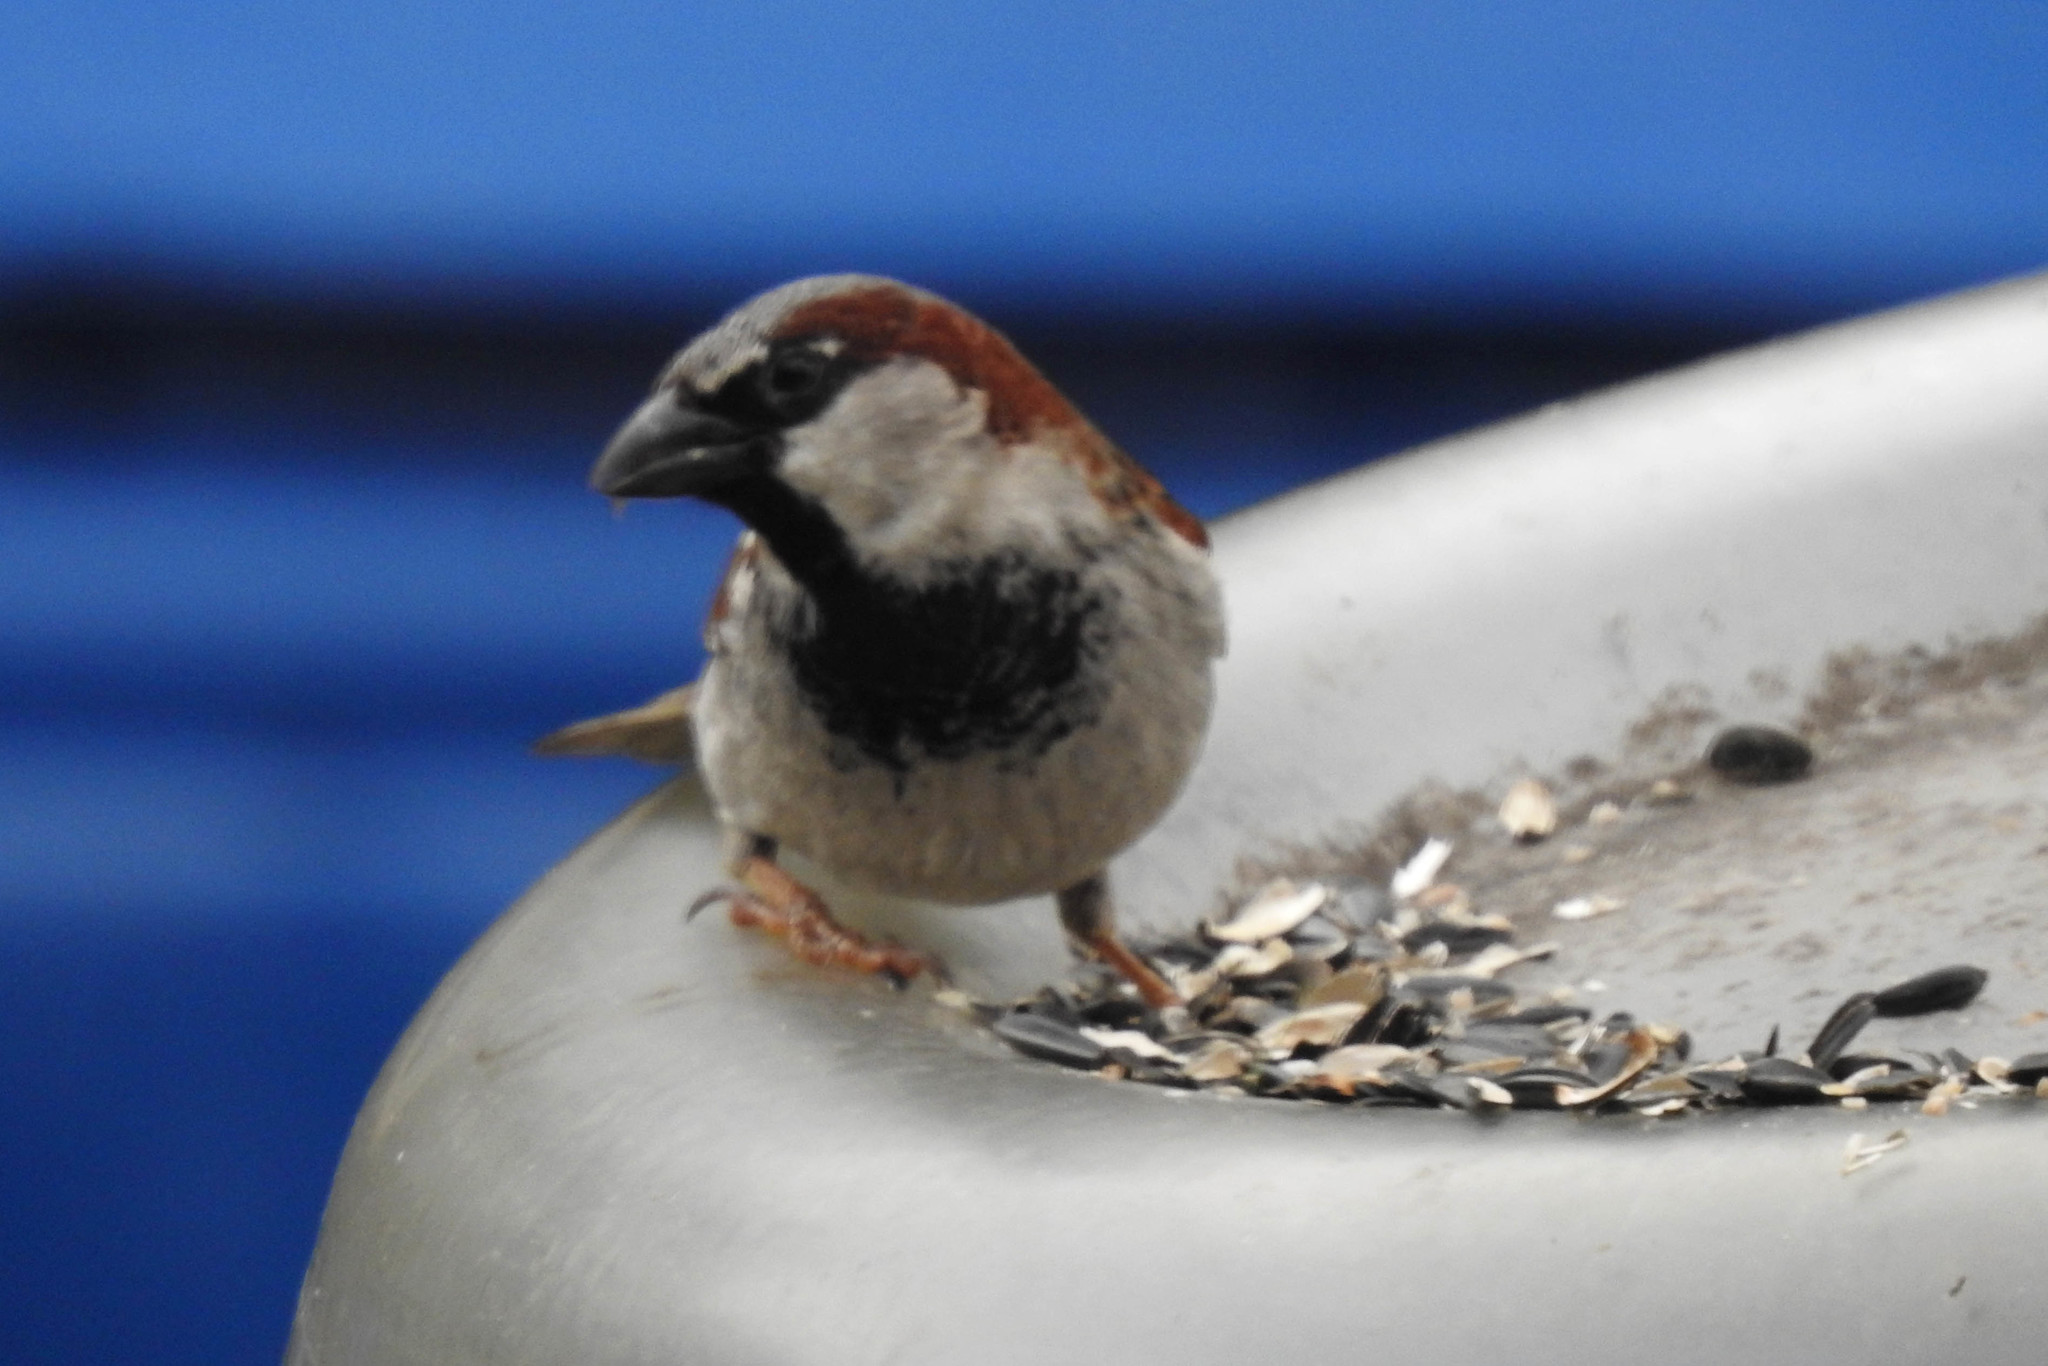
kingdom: Animalia
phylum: Chordata
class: Aves
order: Passeriformes
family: Passeridae
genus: Passer
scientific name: Passer domesticus
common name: House sparrow
